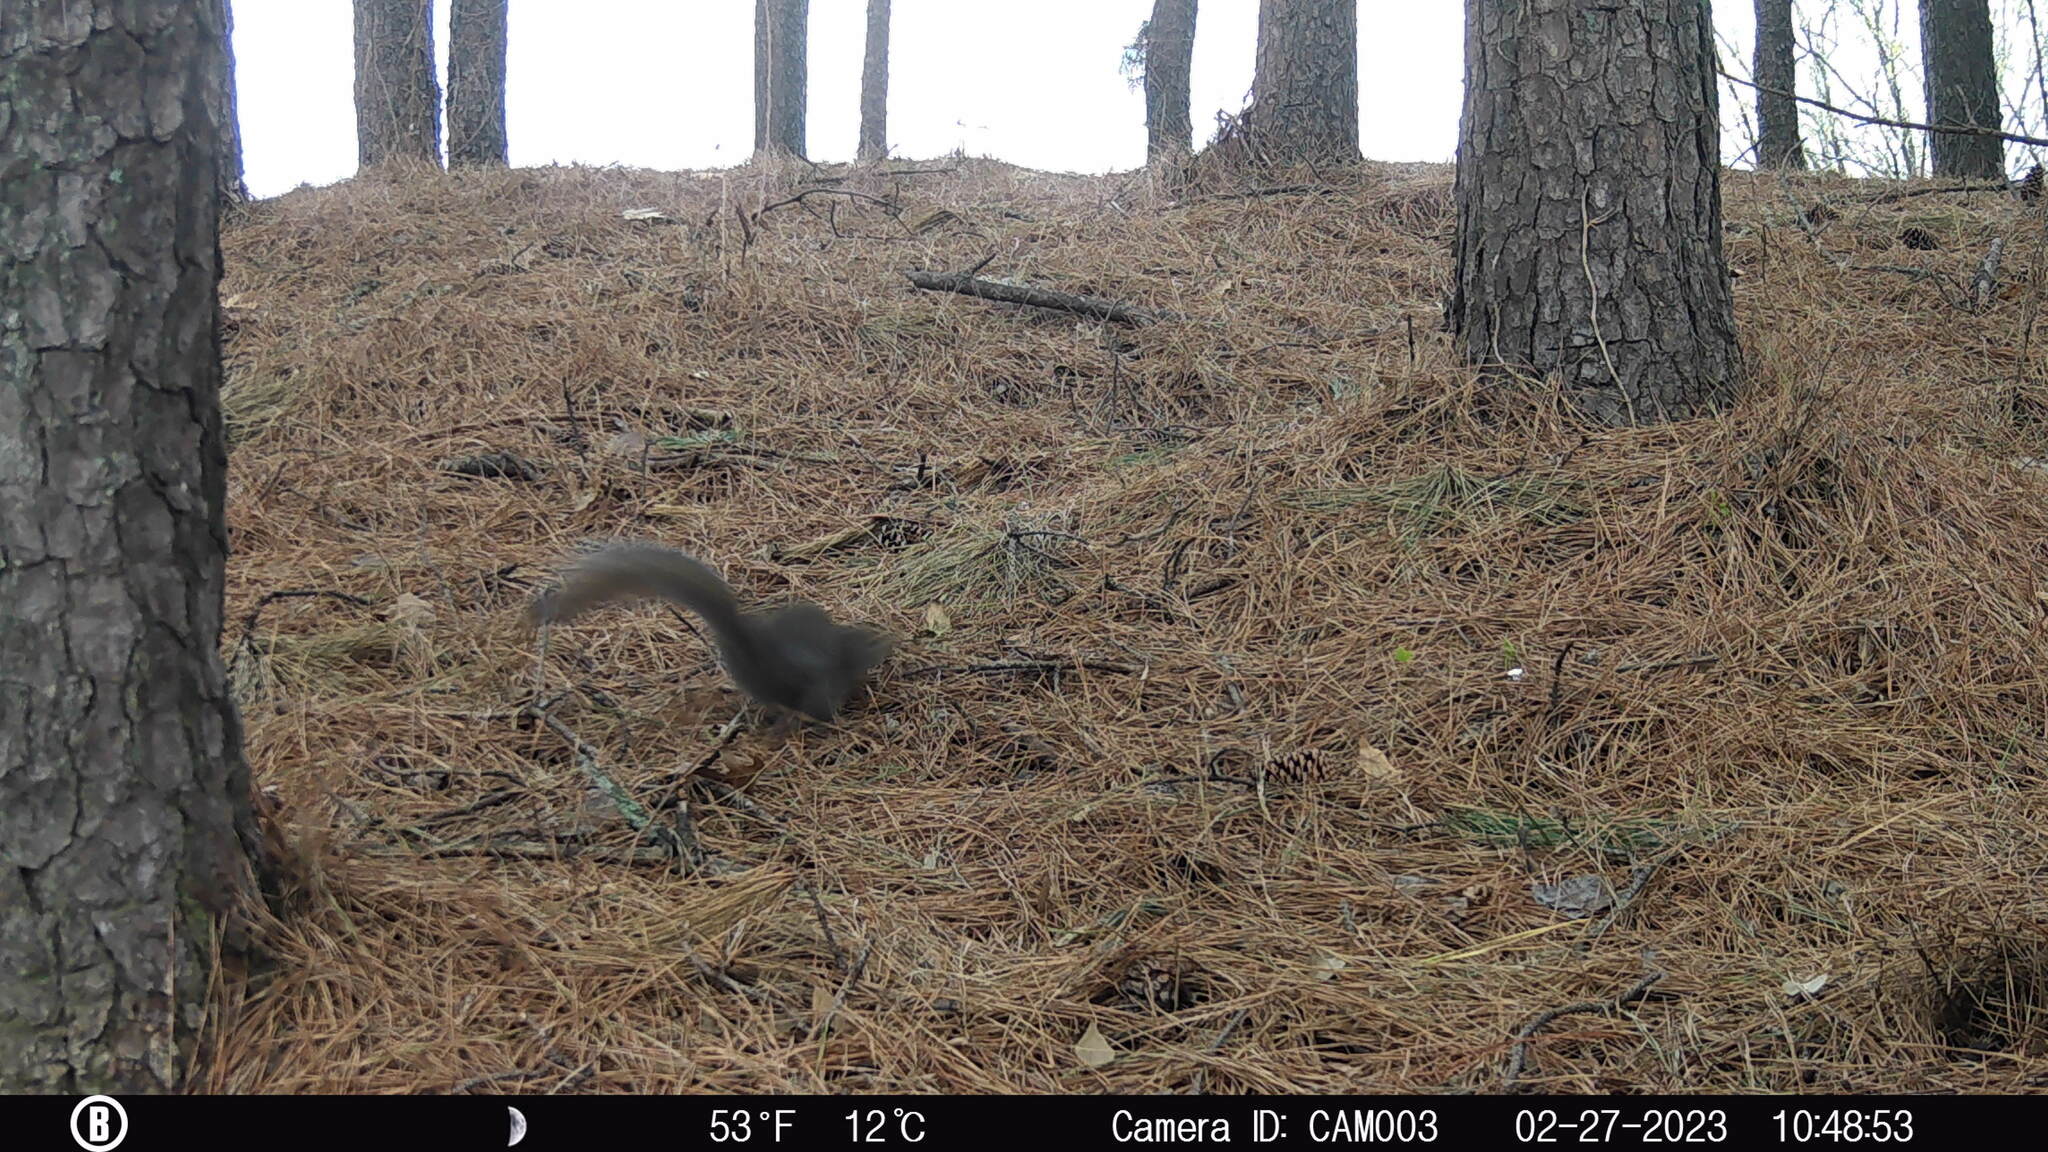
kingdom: Animalia
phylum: Chordata
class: Mammalia
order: Rodentia
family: Sciuridae
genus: Sciurus
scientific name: Sciurus carolinensis
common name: Eastern gray squirrel
